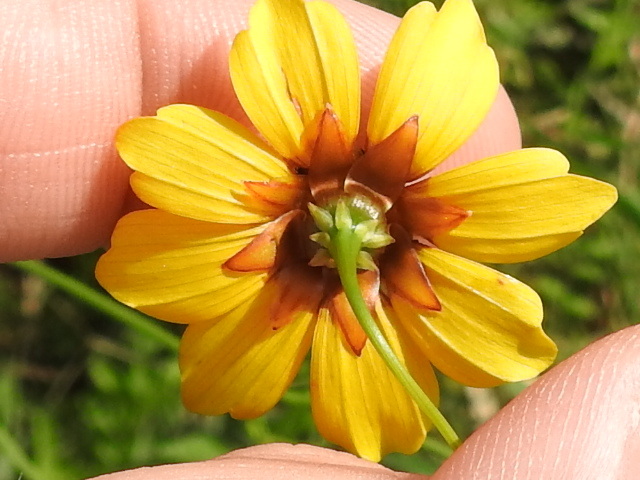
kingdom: Plantae
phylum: Tracheophyta
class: Magnoliopsida
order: Asterales
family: Asteraceae
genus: Coreopsis
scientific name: Coreopsis tinctoria
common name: Garden tickseed
